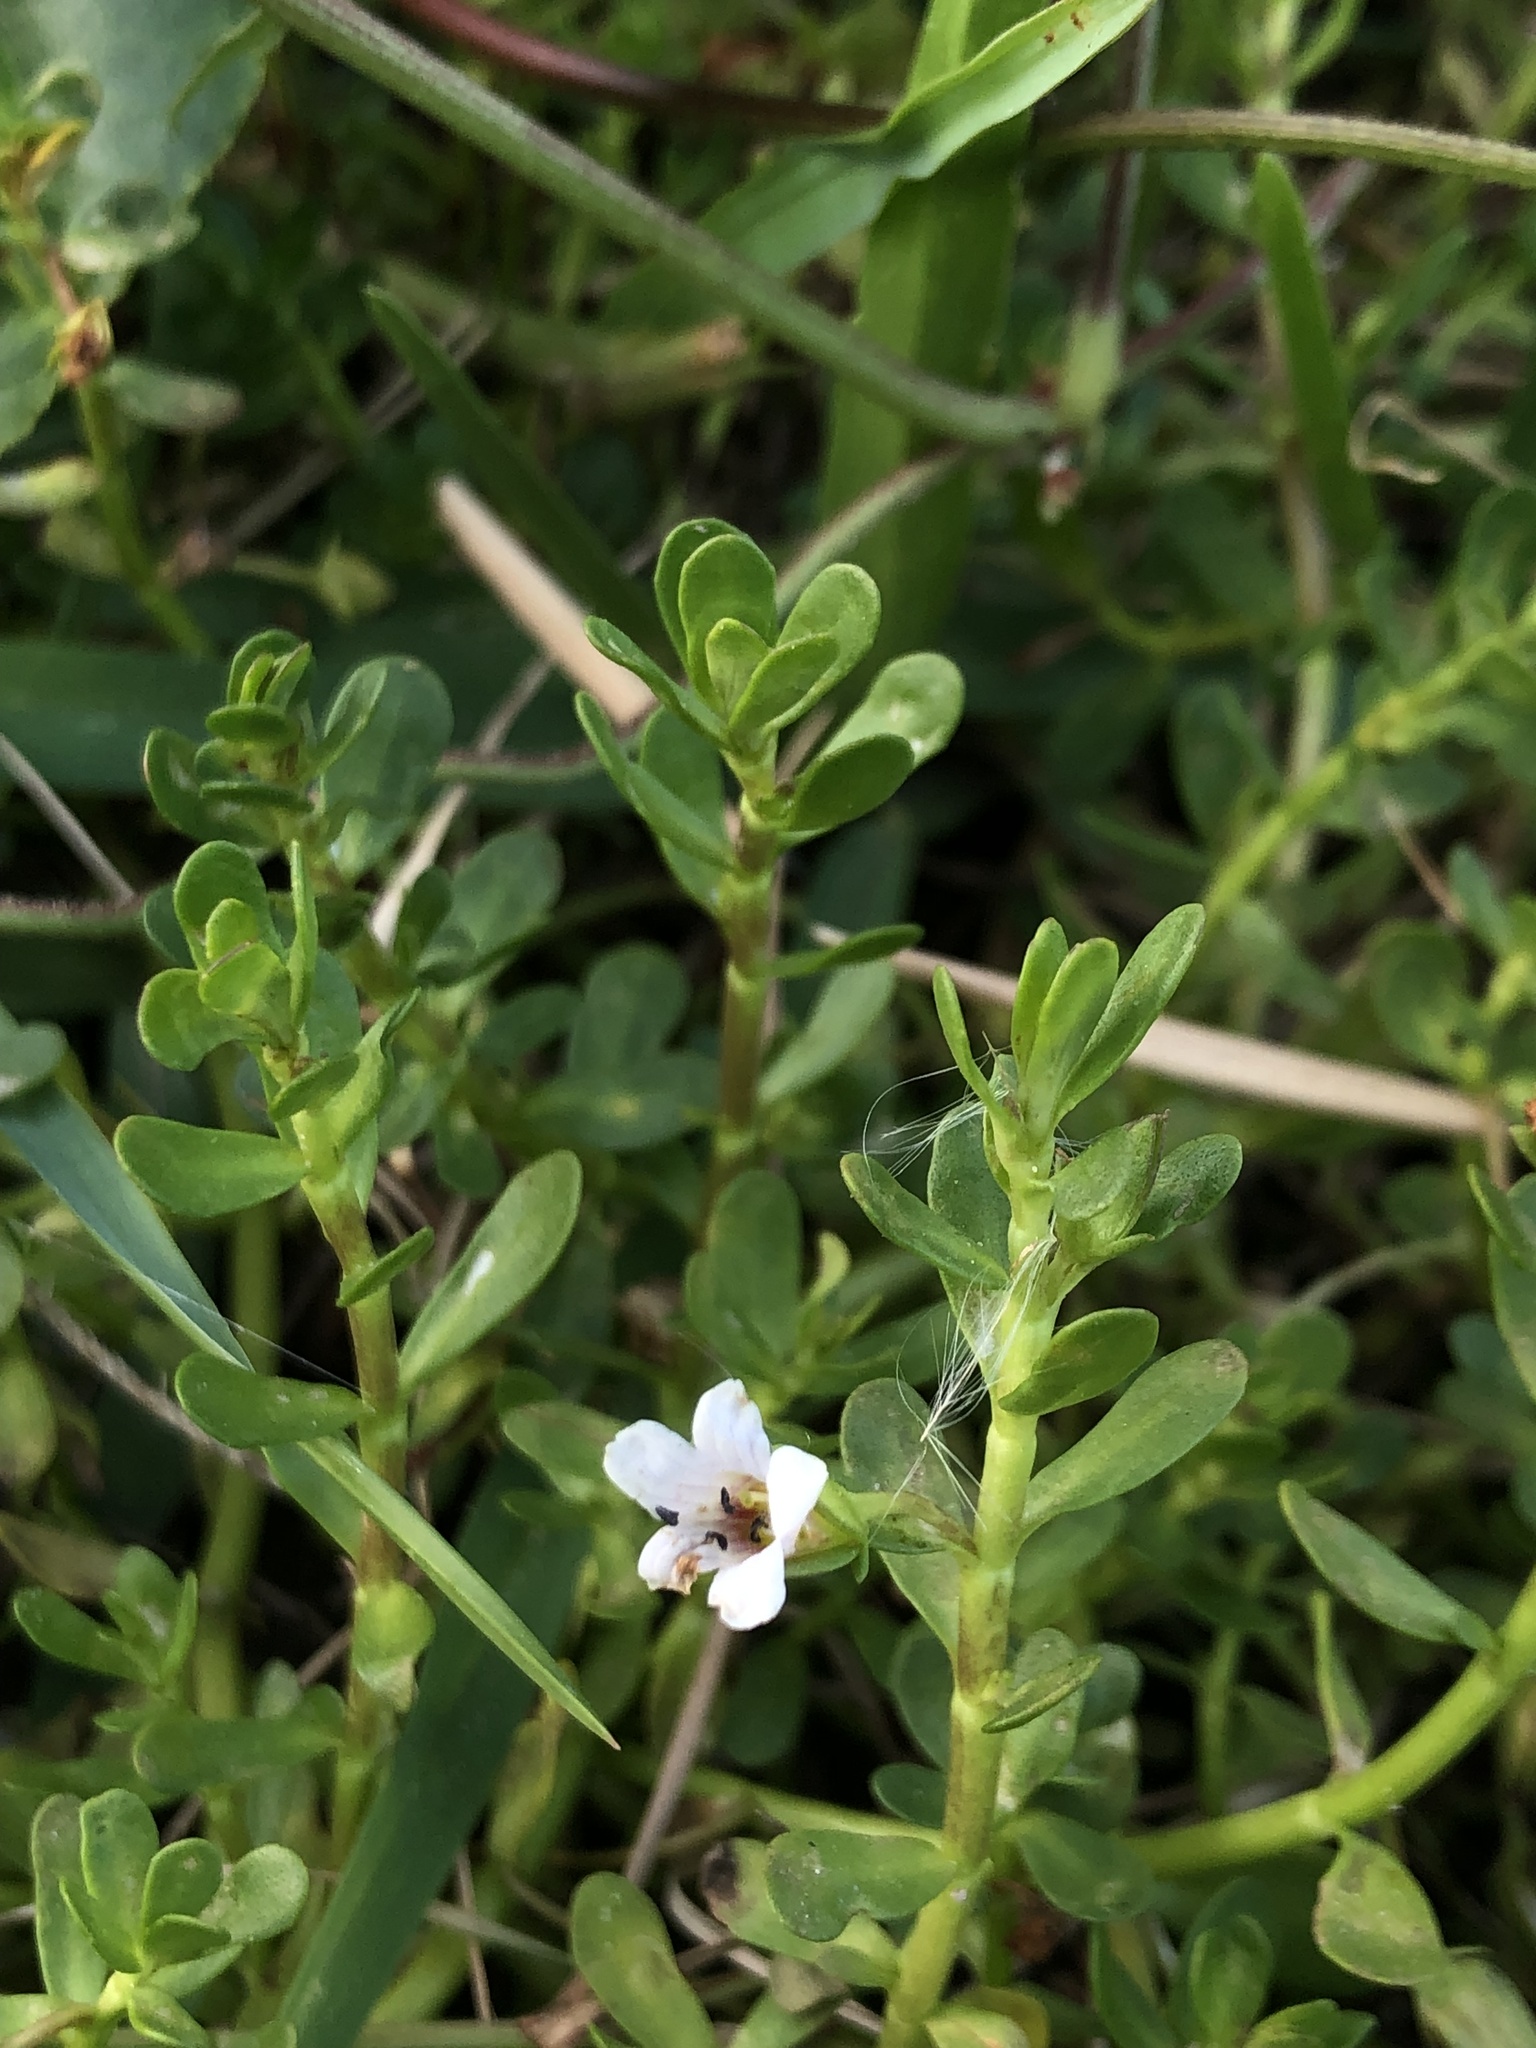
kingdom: Plantae
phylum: Tracheophyta
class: Magnoliopsida
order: Lamiales
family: Plantaginaceae
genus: Bacopa
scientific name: Bacopa monnieri
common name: Indian-pennywort
